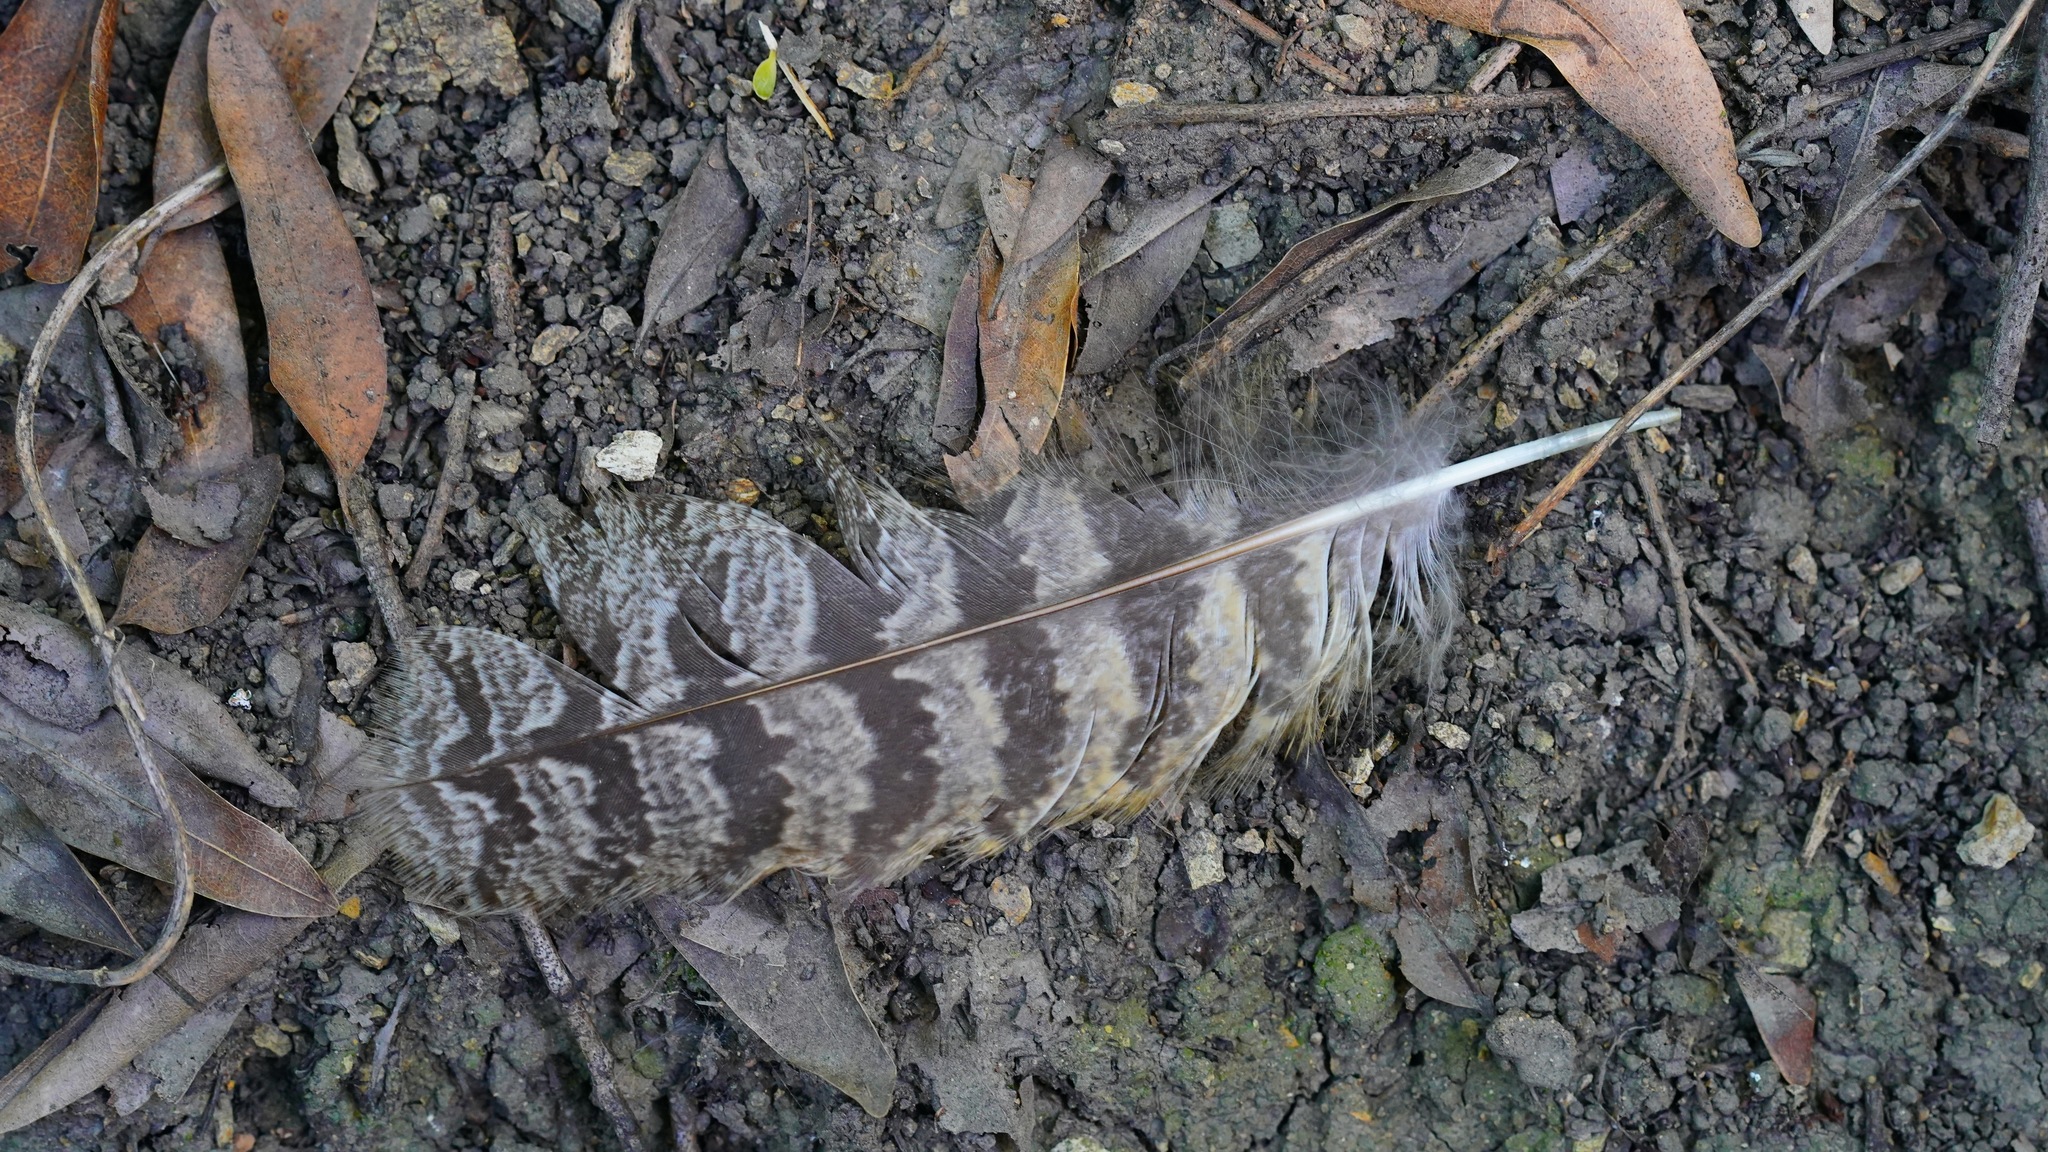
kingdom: Animalia
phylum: Chordata
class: Aves
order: Strigiformes
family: Strigidae
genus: Bubo
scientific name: Bubo virginianus
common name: Great horned owl
